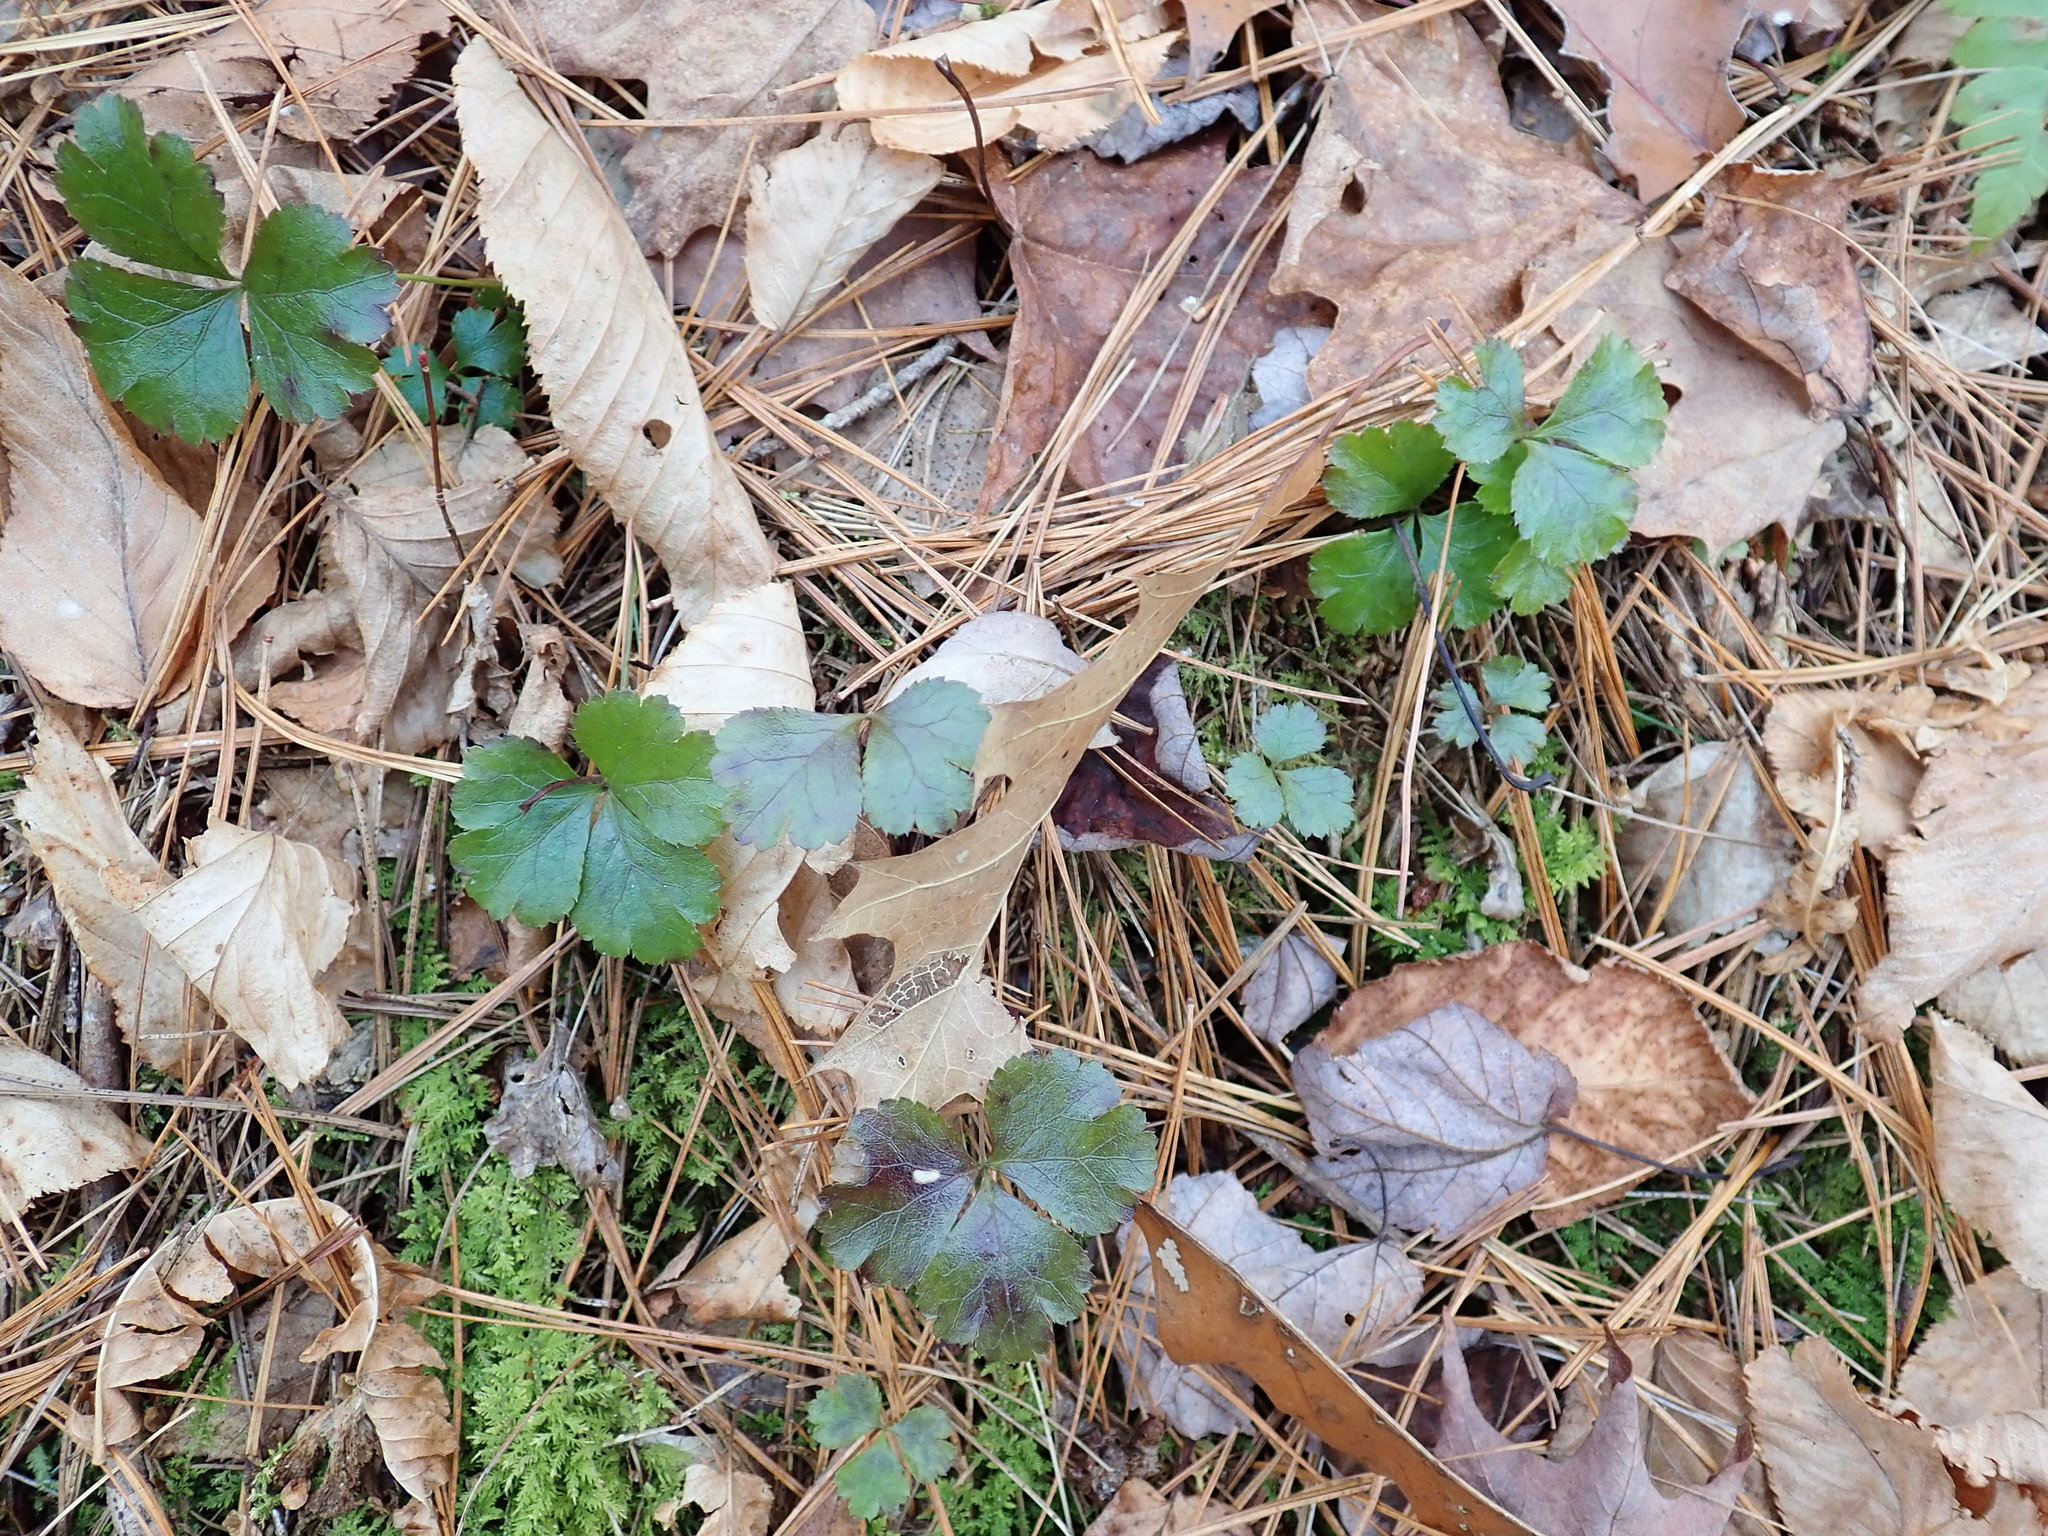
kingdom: Plantae
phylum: Tracheophyta
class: Magnoliopsida
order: Ranunculales
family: Ranunculaceae
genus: Coptis
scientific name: Coptis trifolia
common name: Canker-root
